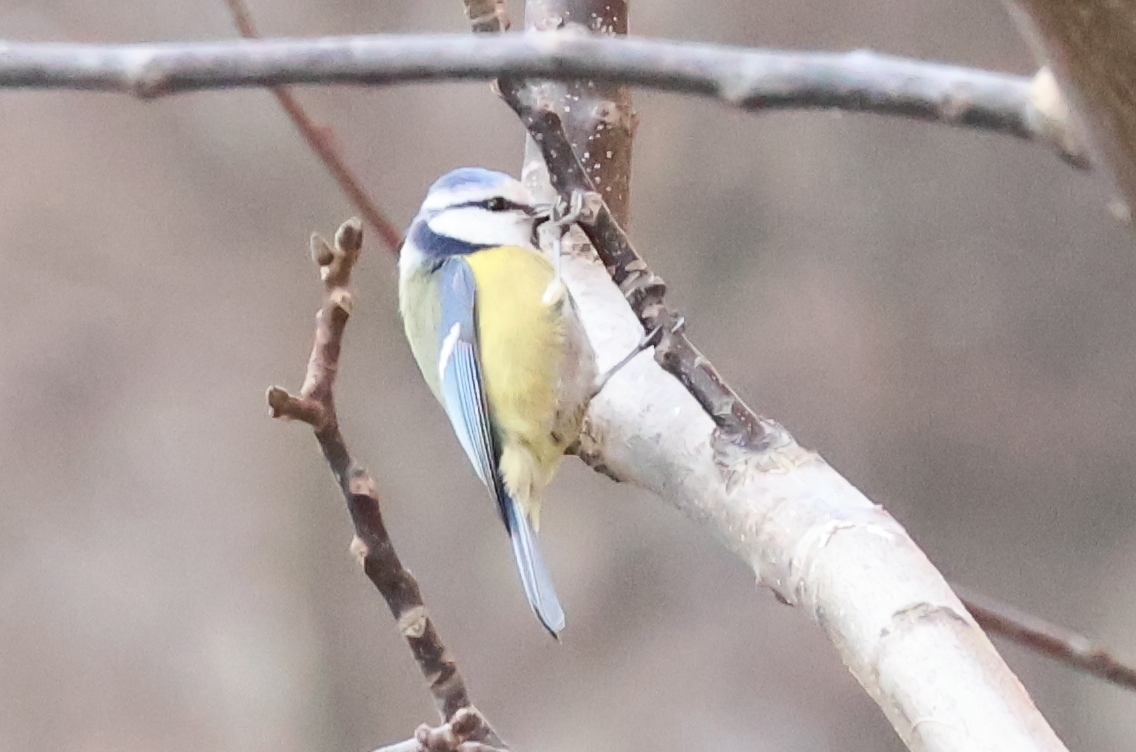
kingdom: Animalia
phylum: Chordata
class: Aves
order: Passeriformes
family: Paridae
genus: Cyanistes
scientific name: Cyanistes caeruleus
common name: Eurasian blue tit
